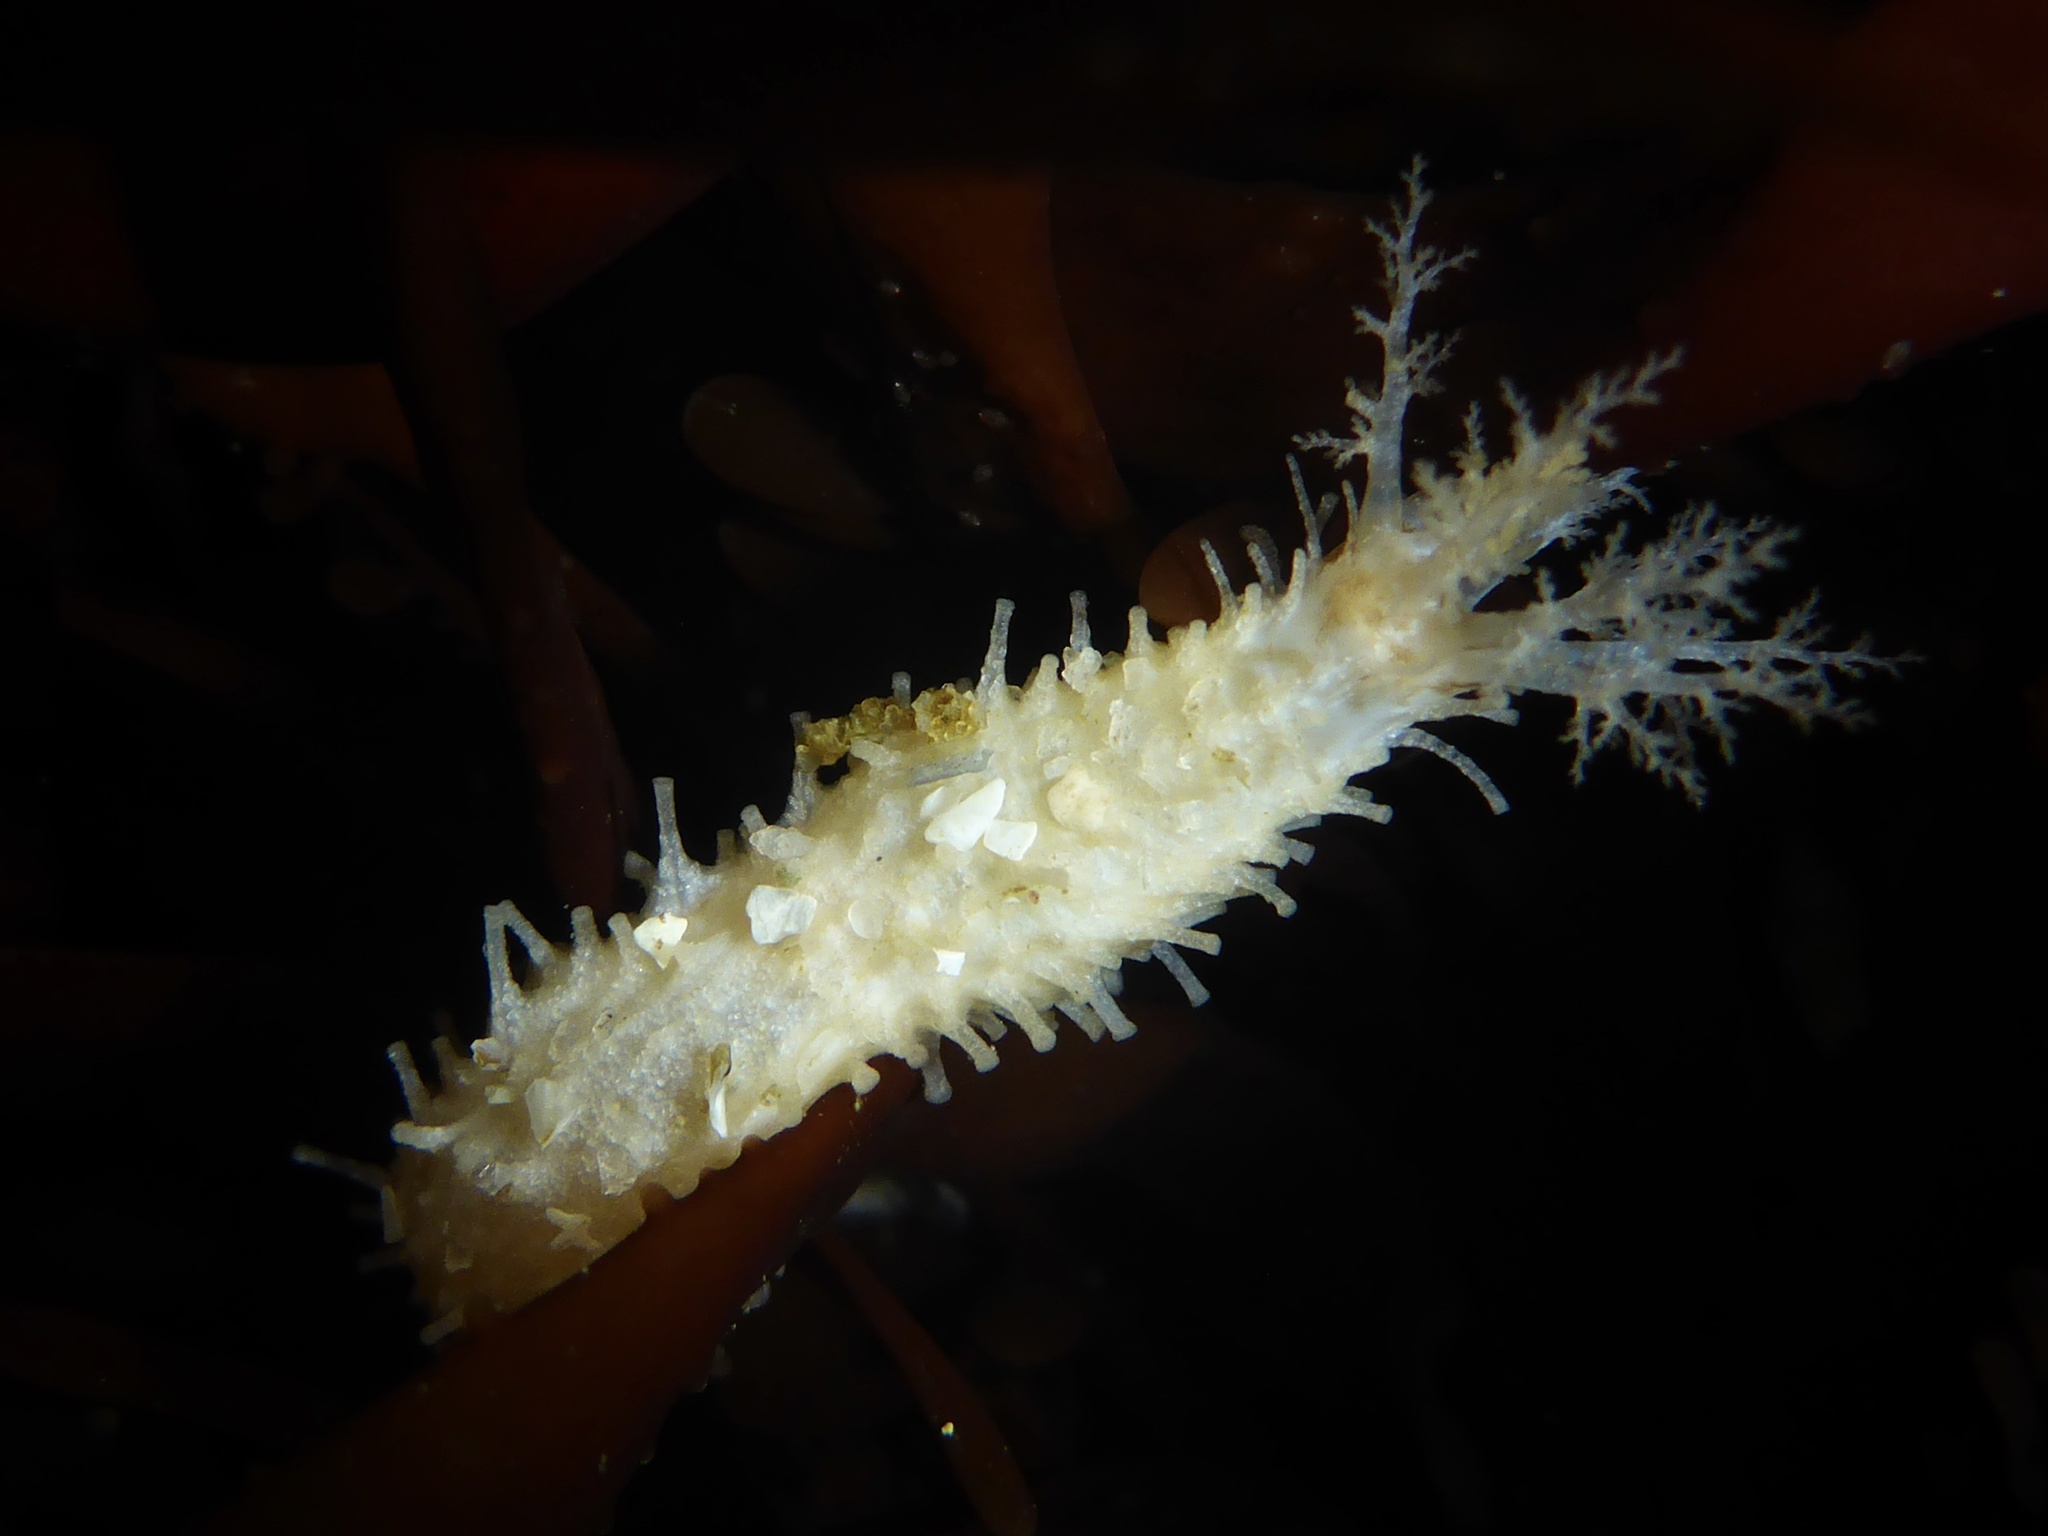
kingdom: Animalia
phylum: Echinodermata
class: Holothuroidea
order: Dendrochirotida
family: Sclerodactylidae
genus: Eupentacta
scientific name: Eupentacta quinquesemita
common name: Pentamerous sea cucumber
